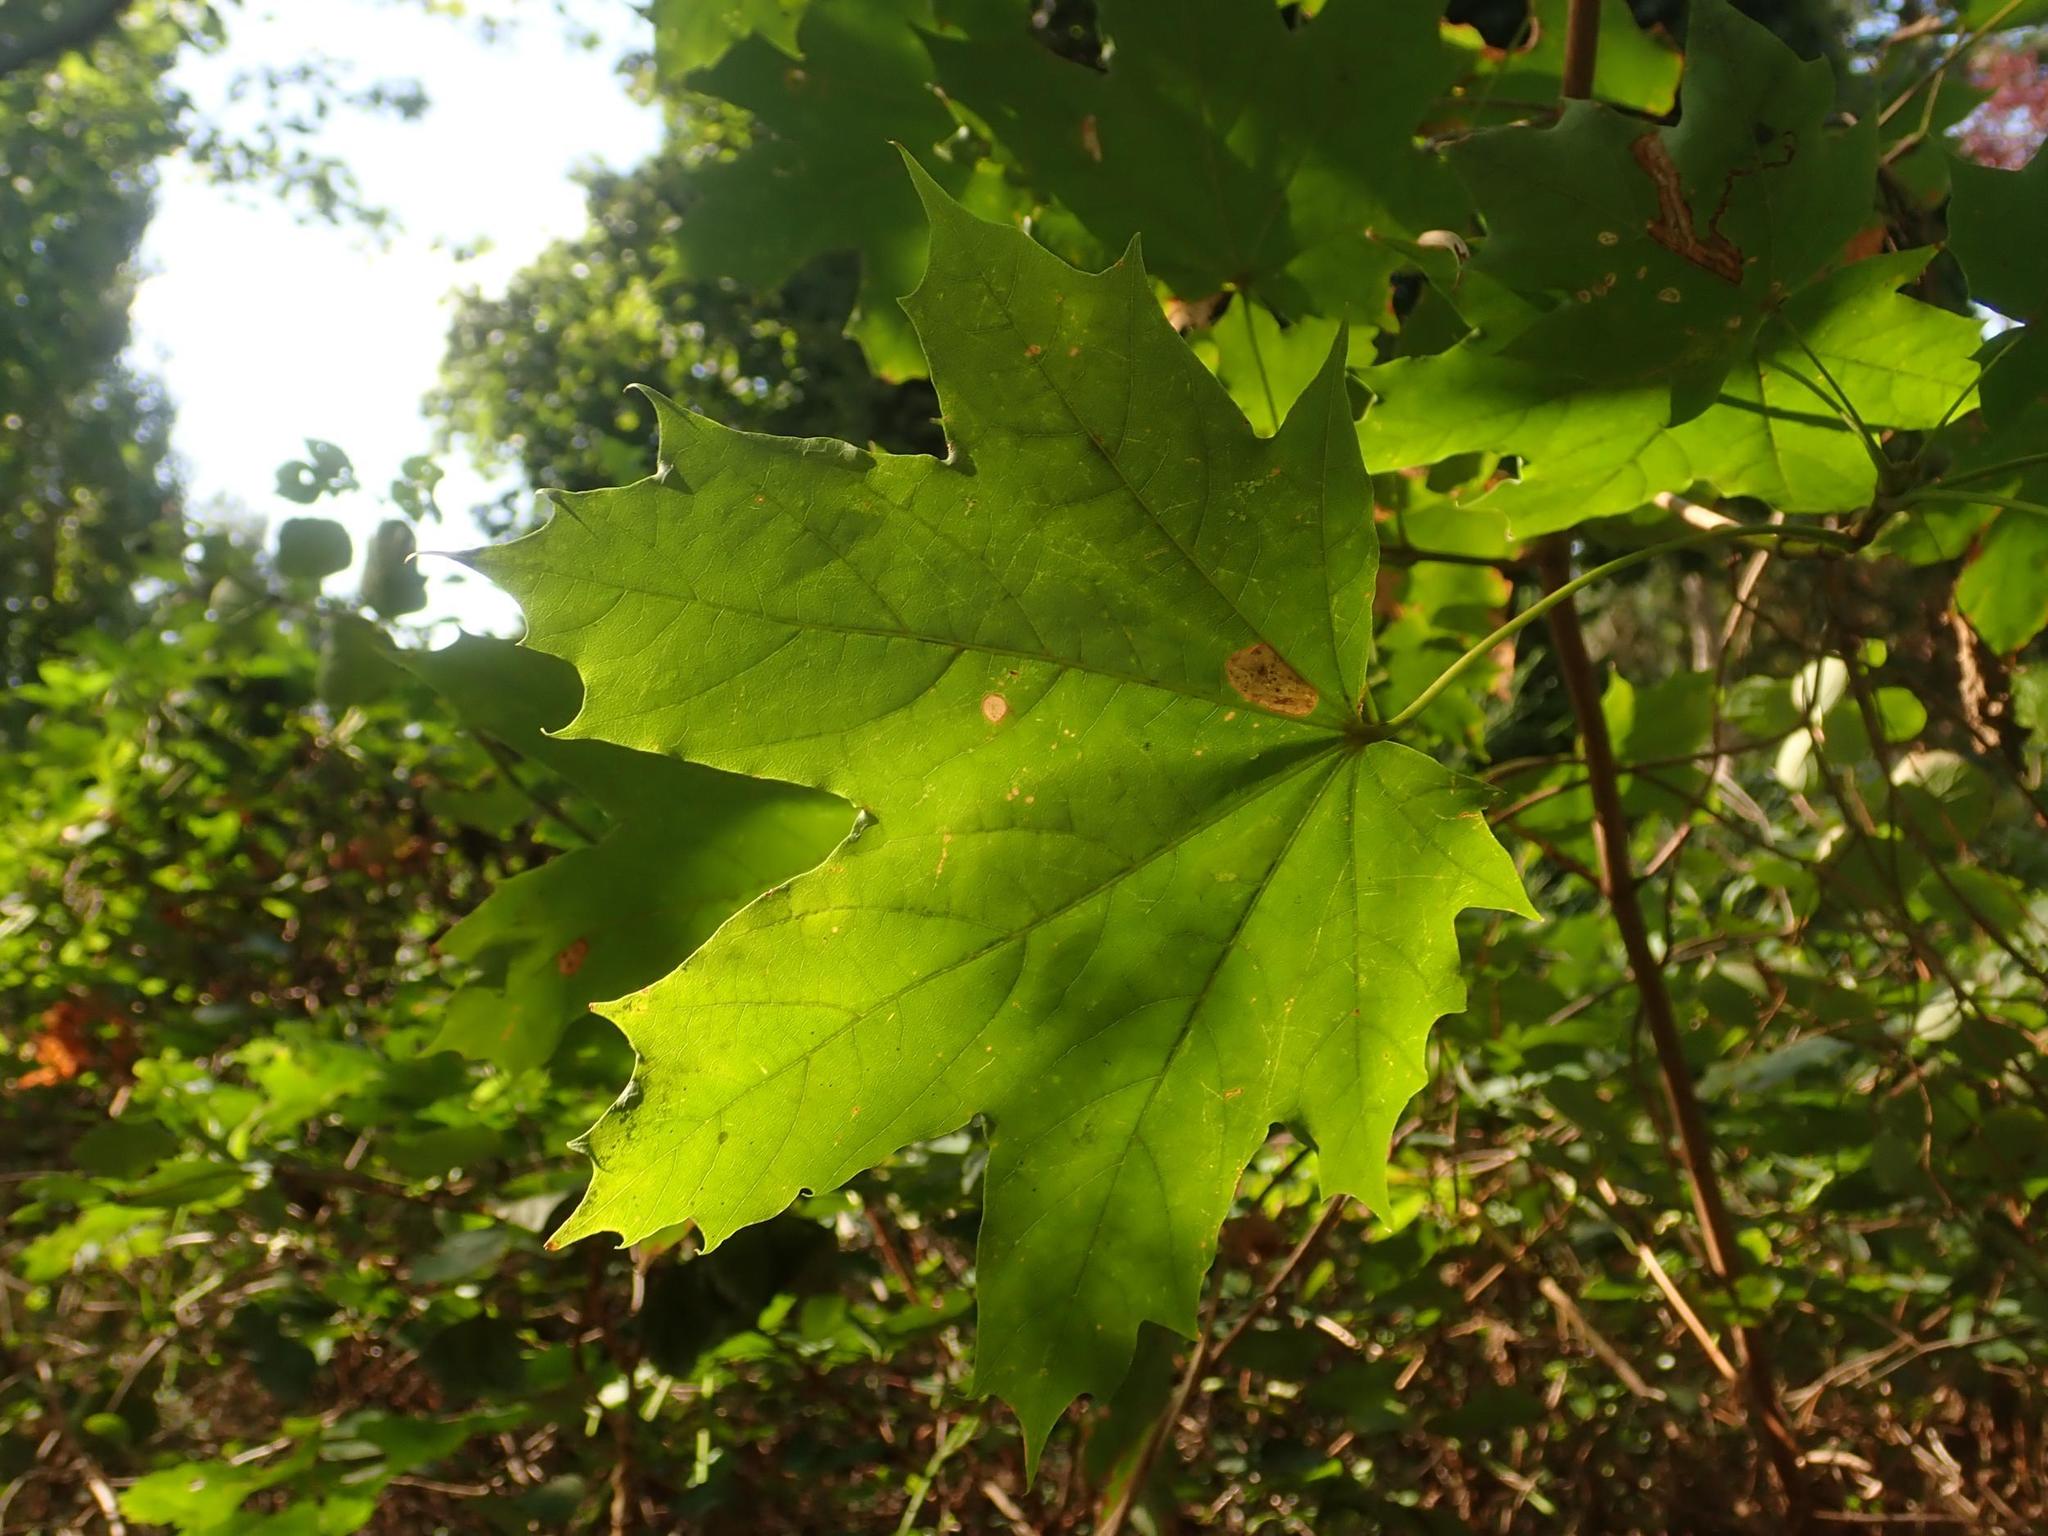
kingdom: Plantae
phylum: Tracheophyta
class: Magnoliopsida
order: Sapindales
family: Sapindaceae
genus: Acer
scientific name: Acer platanoides
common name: Norway maple
